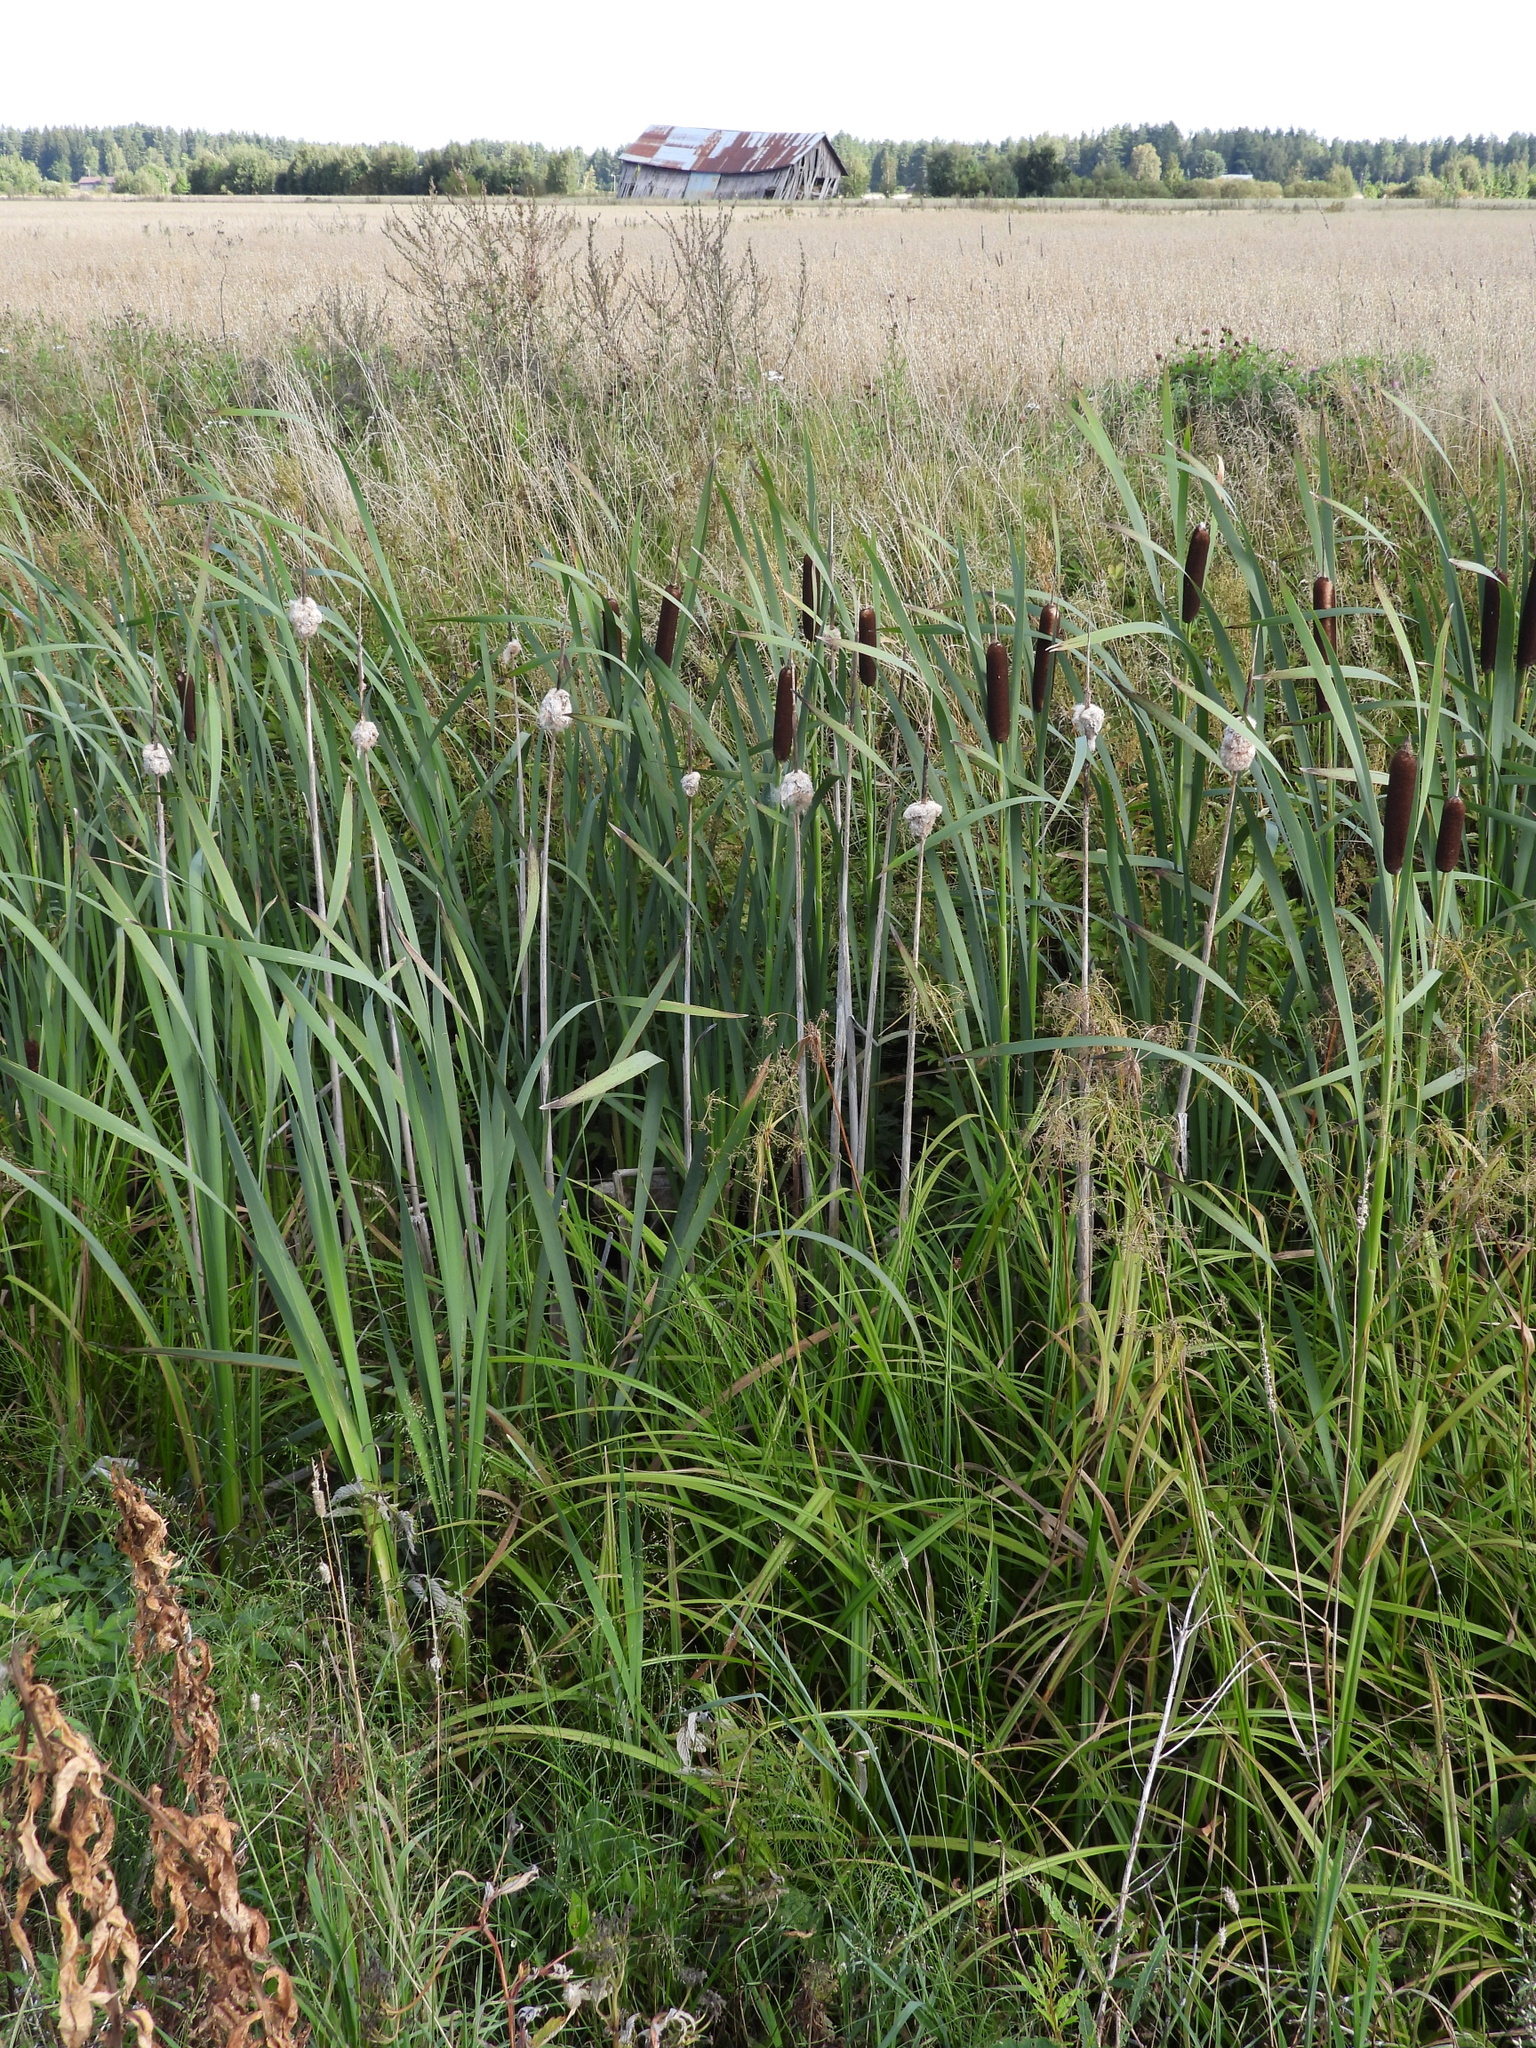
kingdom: Plantae
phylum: Tracheophyta
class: Liliopsida
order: Poales
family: Typhaceae
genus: Typha
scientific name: Typha latifolia
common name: Broadleaf cattail
